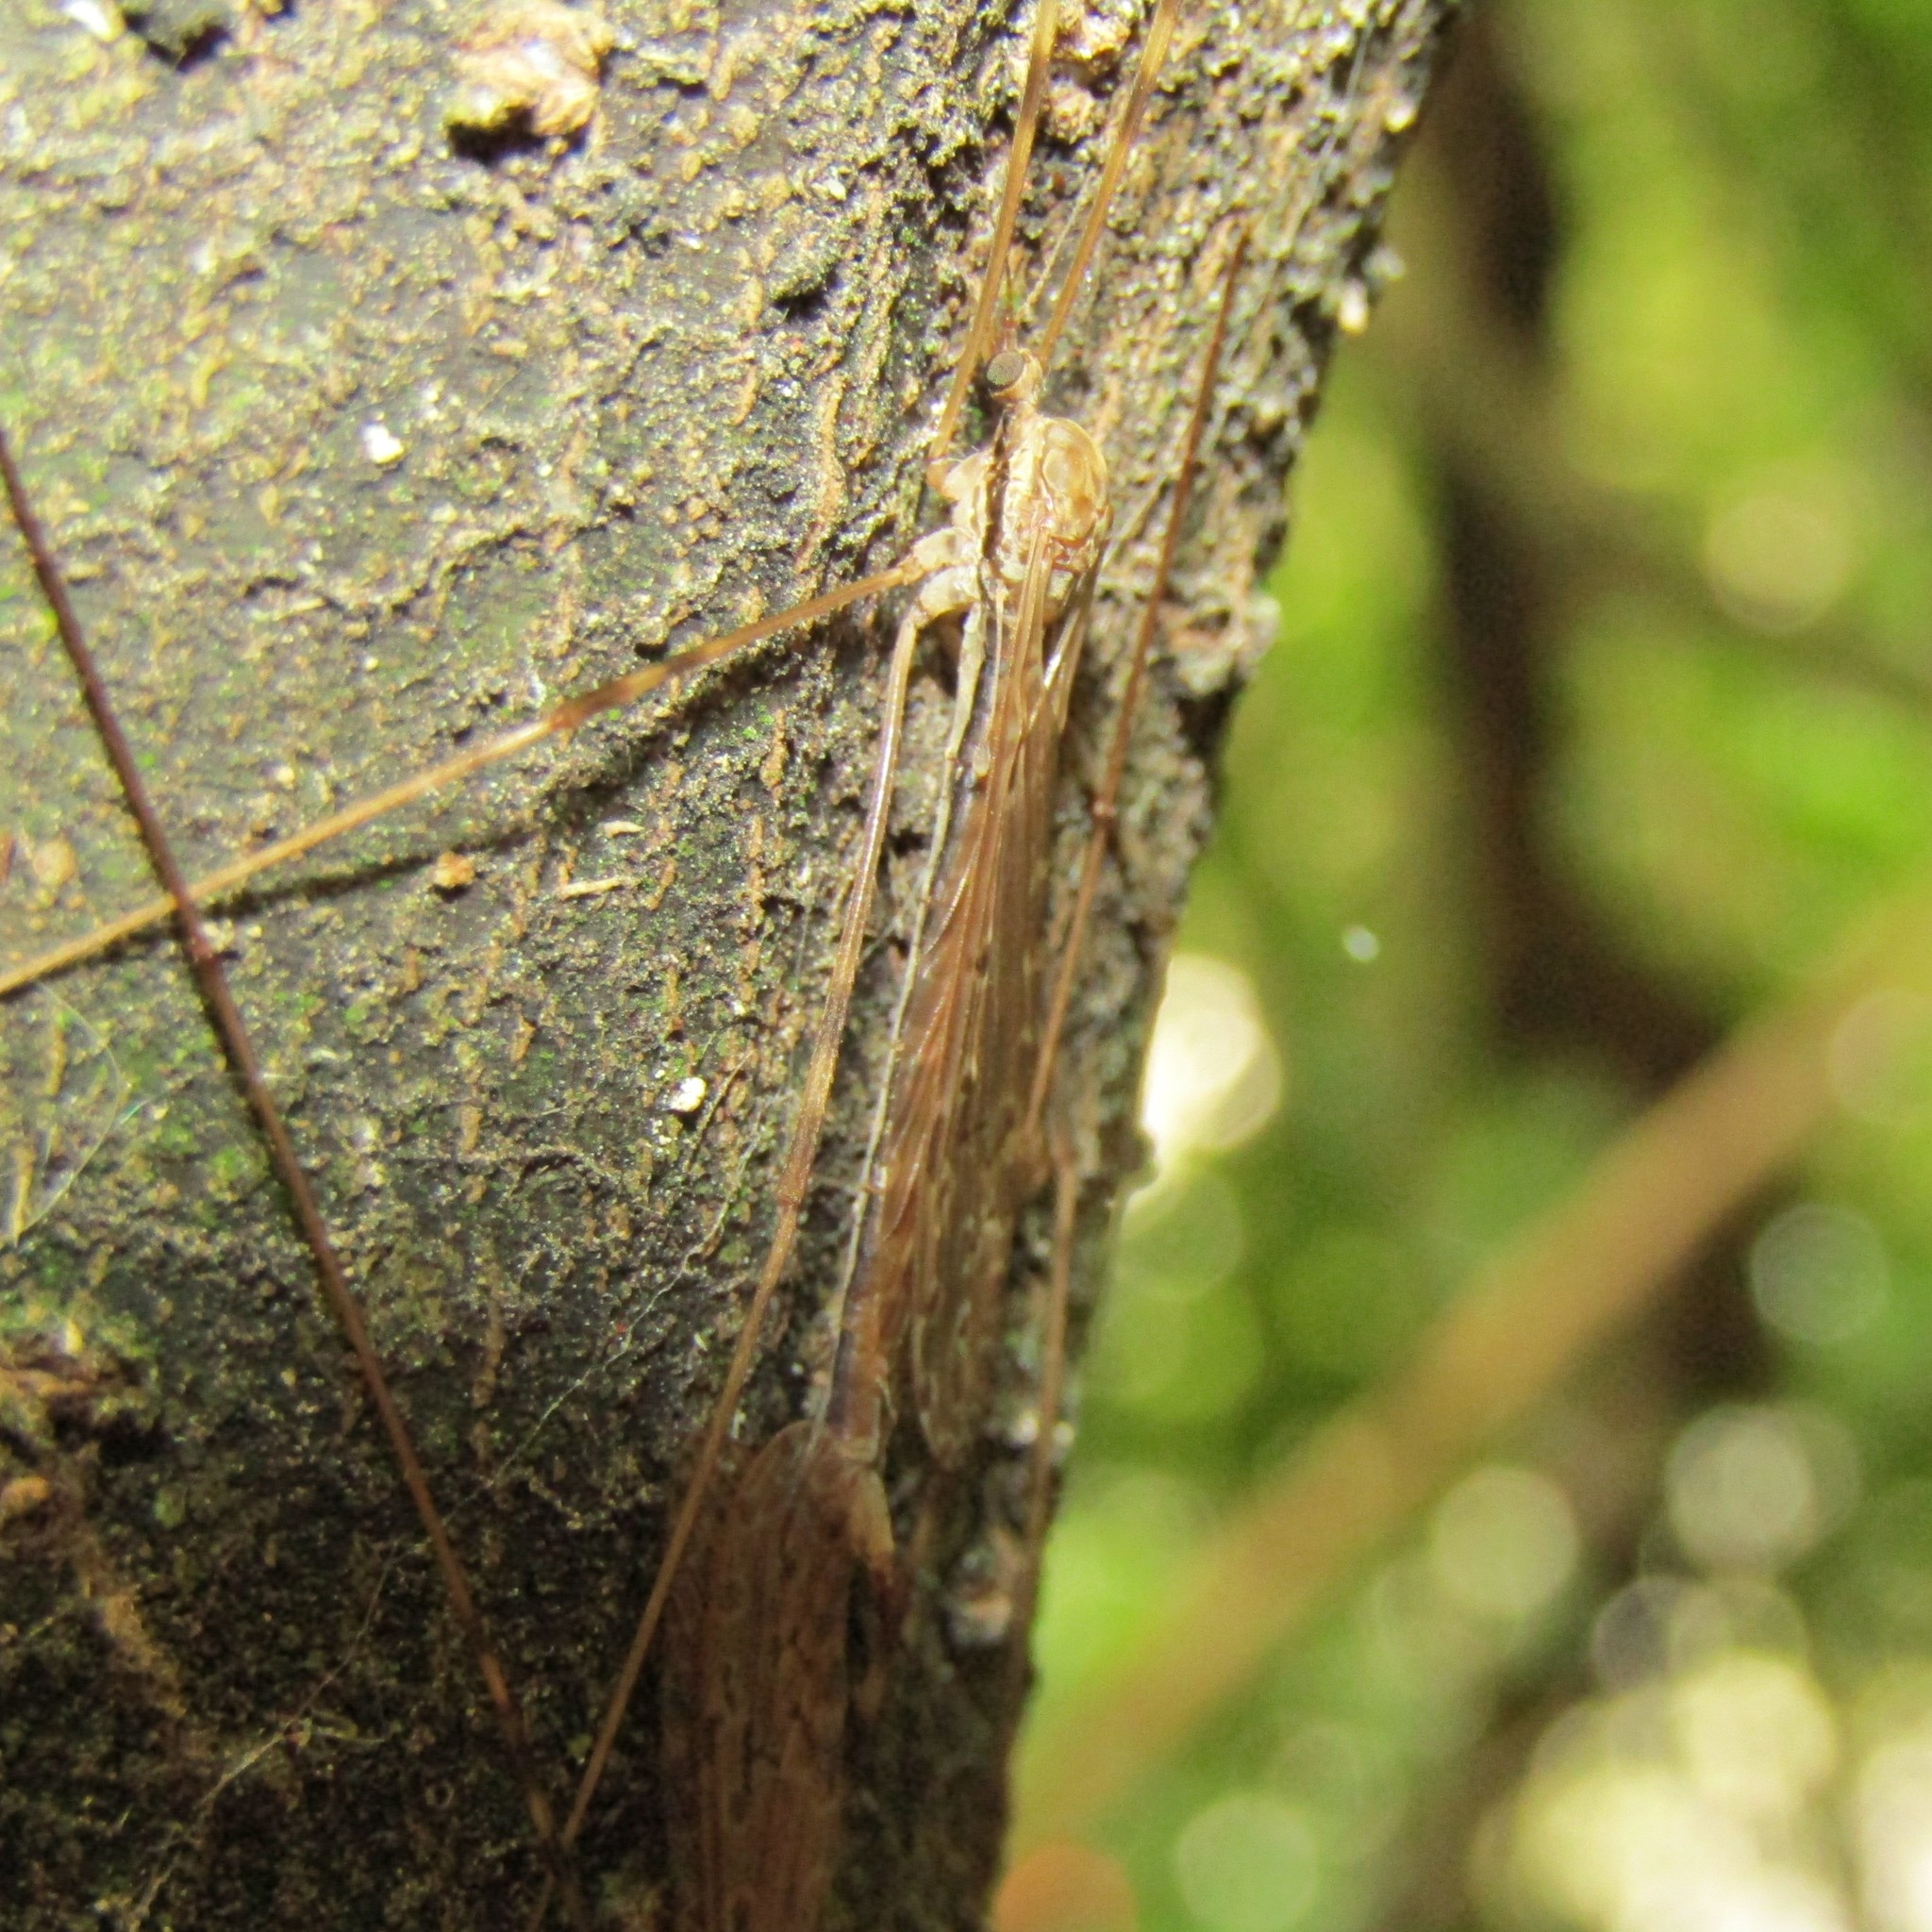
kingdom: Animalia
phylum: Arthropoda
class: Insecta
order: Diptera
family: Limoniidae
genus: Austrolimnophila
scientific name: Austrolimnophila crassipes
